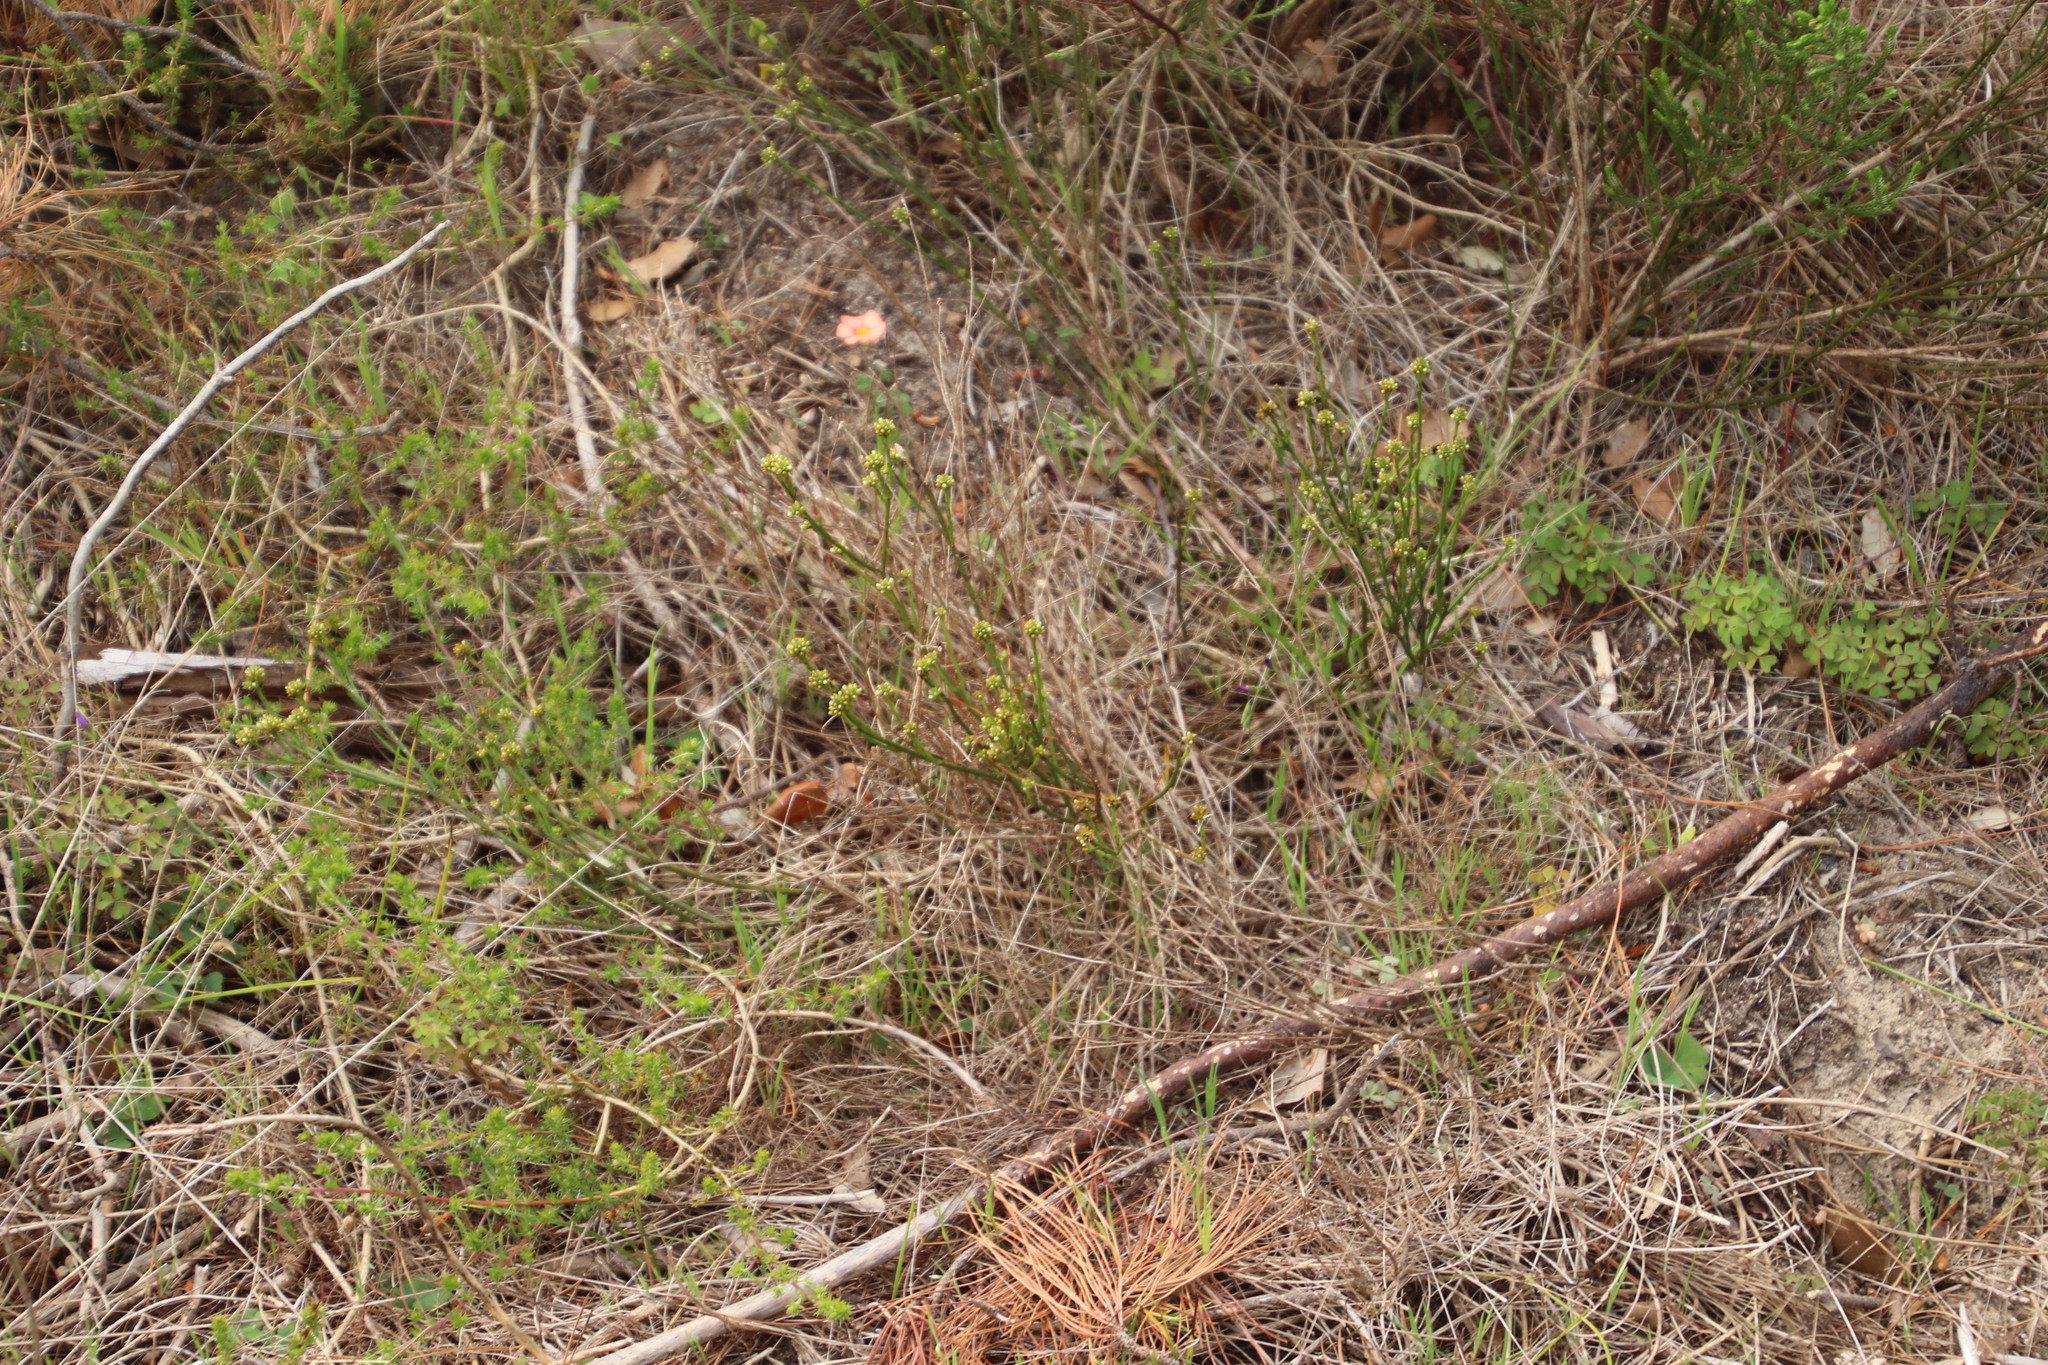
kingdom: Plantae
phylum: Tracheophyta
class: Magnoliopsida
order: Santalales
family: Thesiaceae
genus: Thesium
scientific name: Thesium aggregatum
